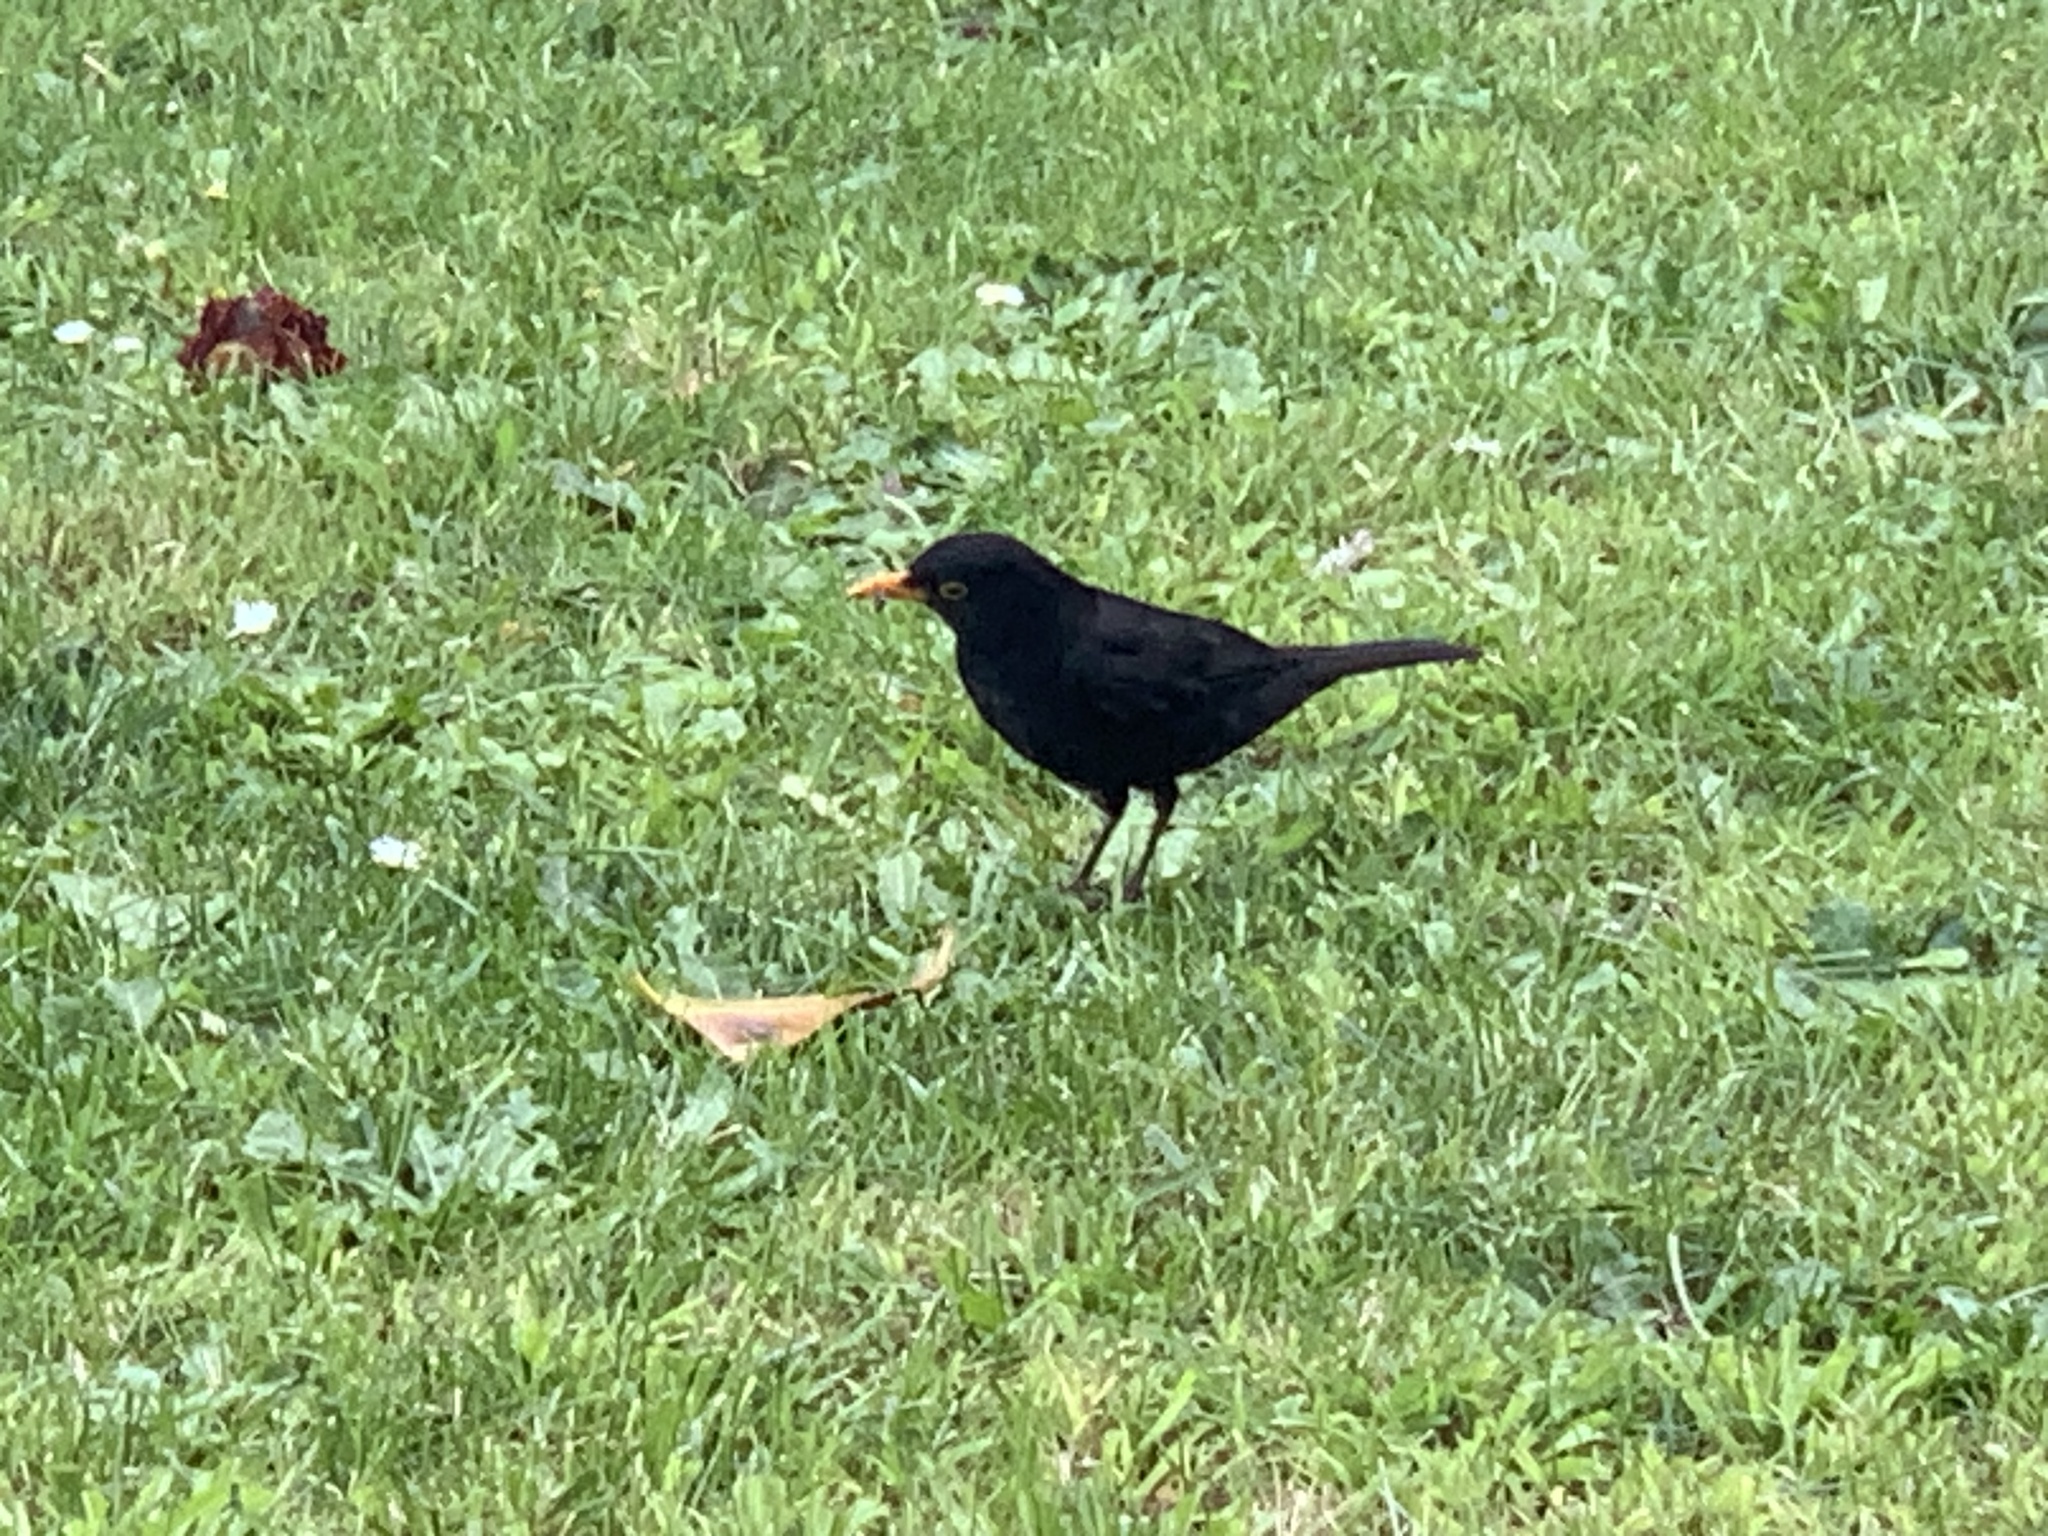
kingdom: Animalia
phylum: Chordata
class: Aves
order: Passeriformes
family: Turdidae
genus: Turdus
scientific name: Turdus merula
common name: Common blackbird
